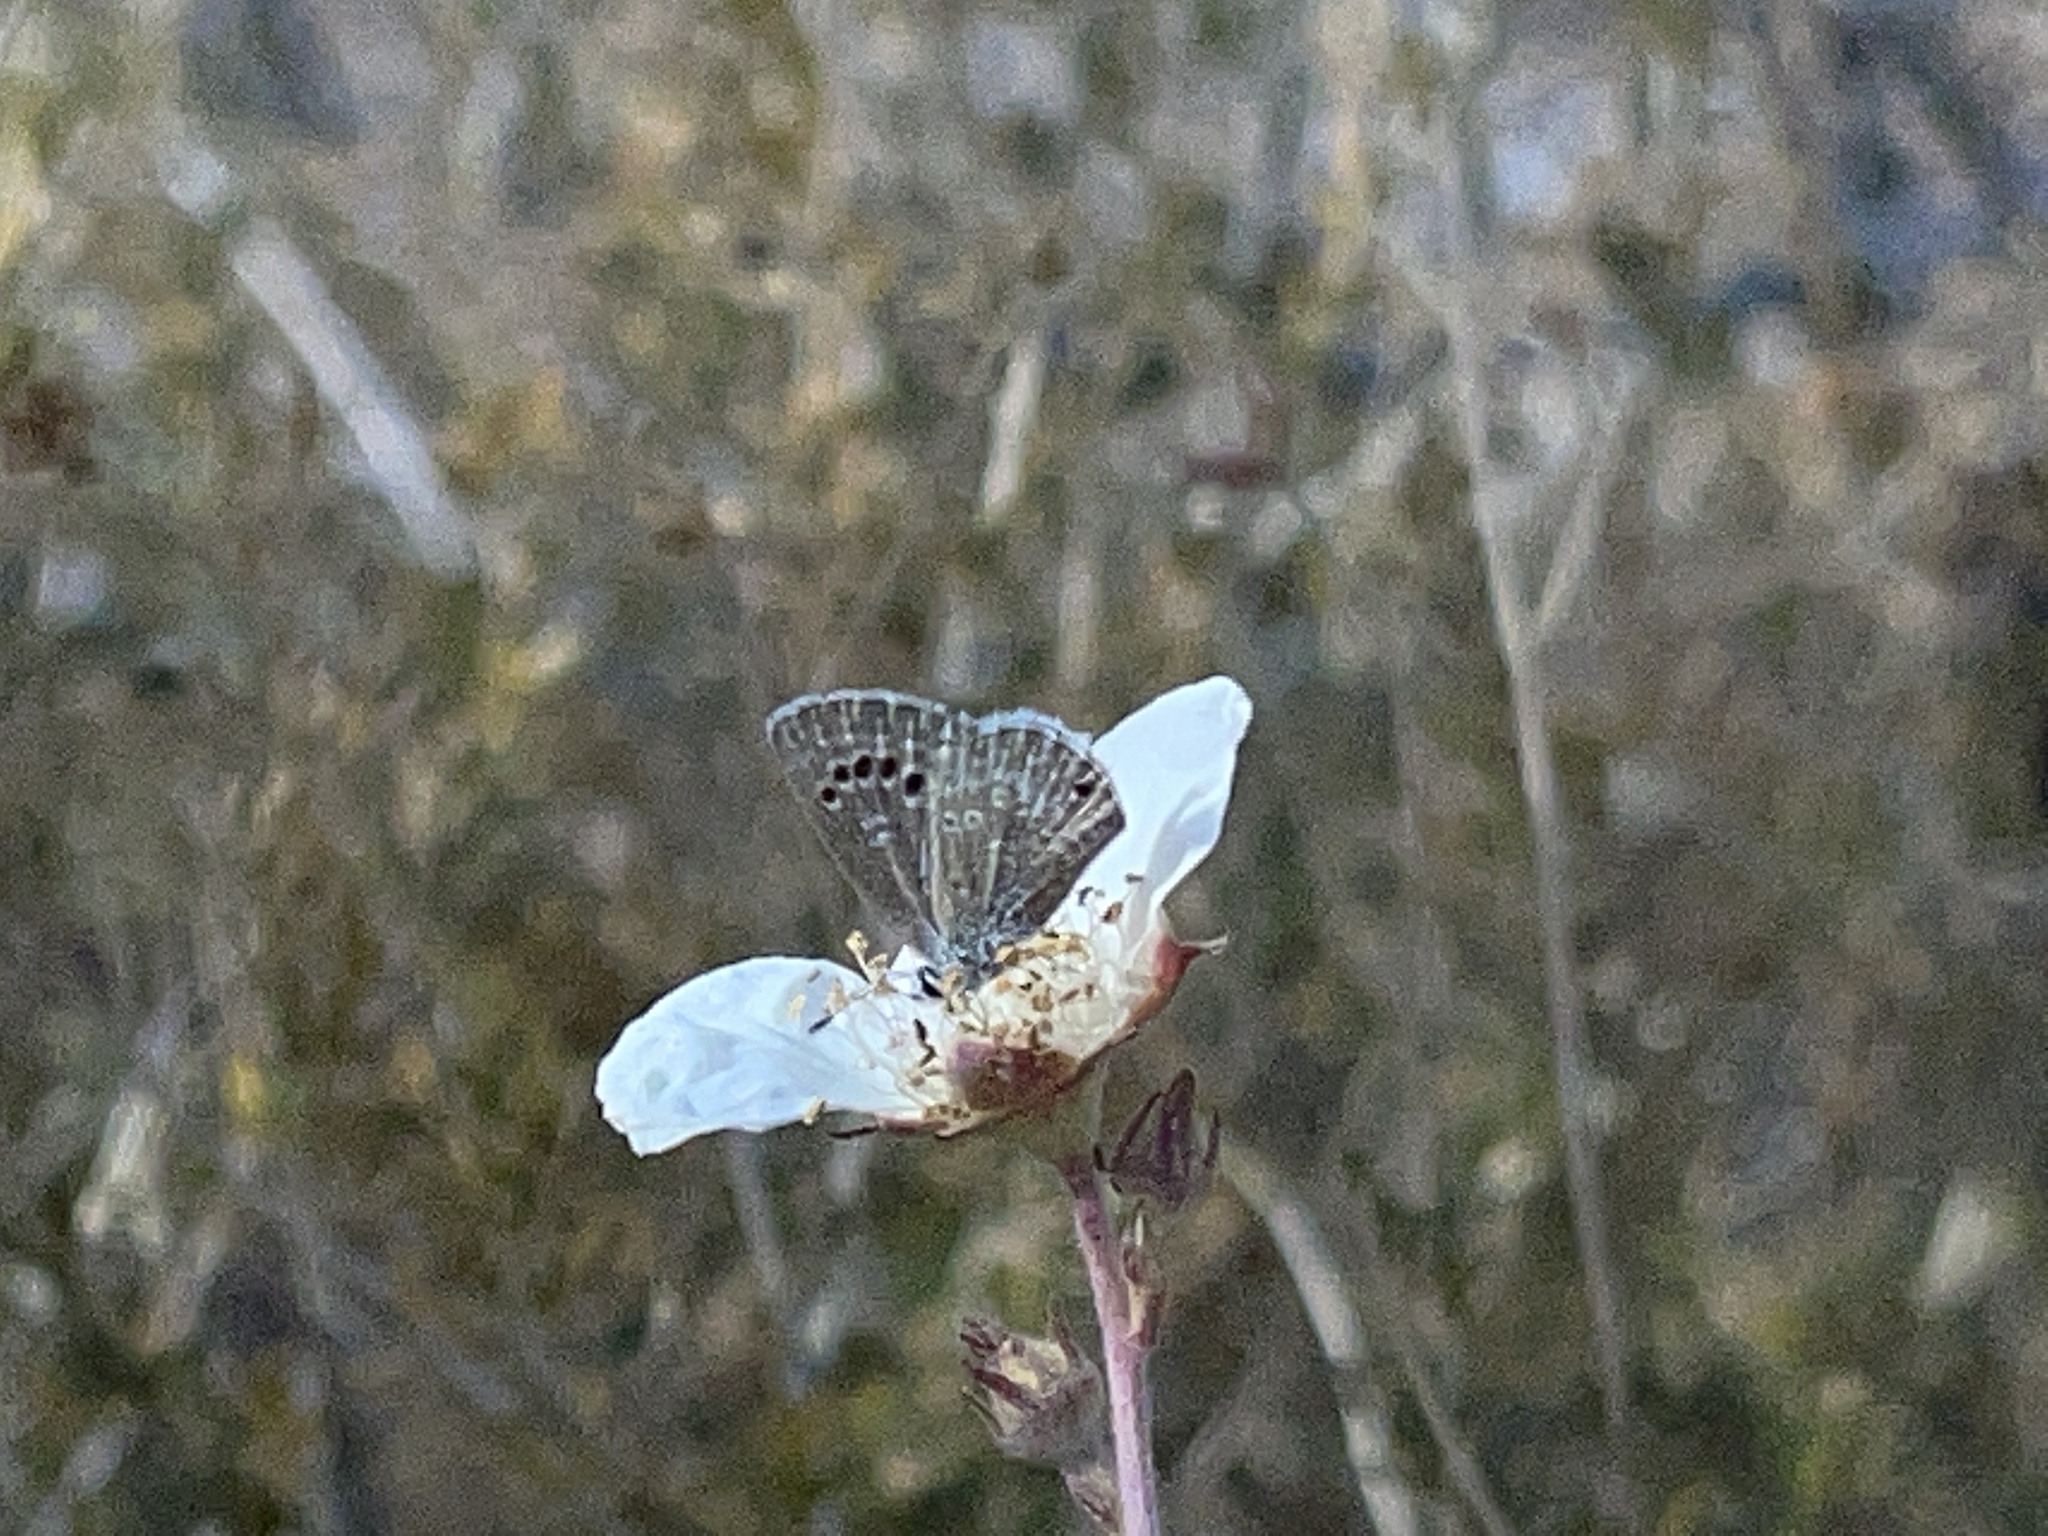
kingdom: Animalia
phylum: Arthropoda
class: Insecta
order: Lepidoptera
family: Lycaenidae
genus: Echinargus
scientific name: Echinargus isola
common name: Reakirt's blue
